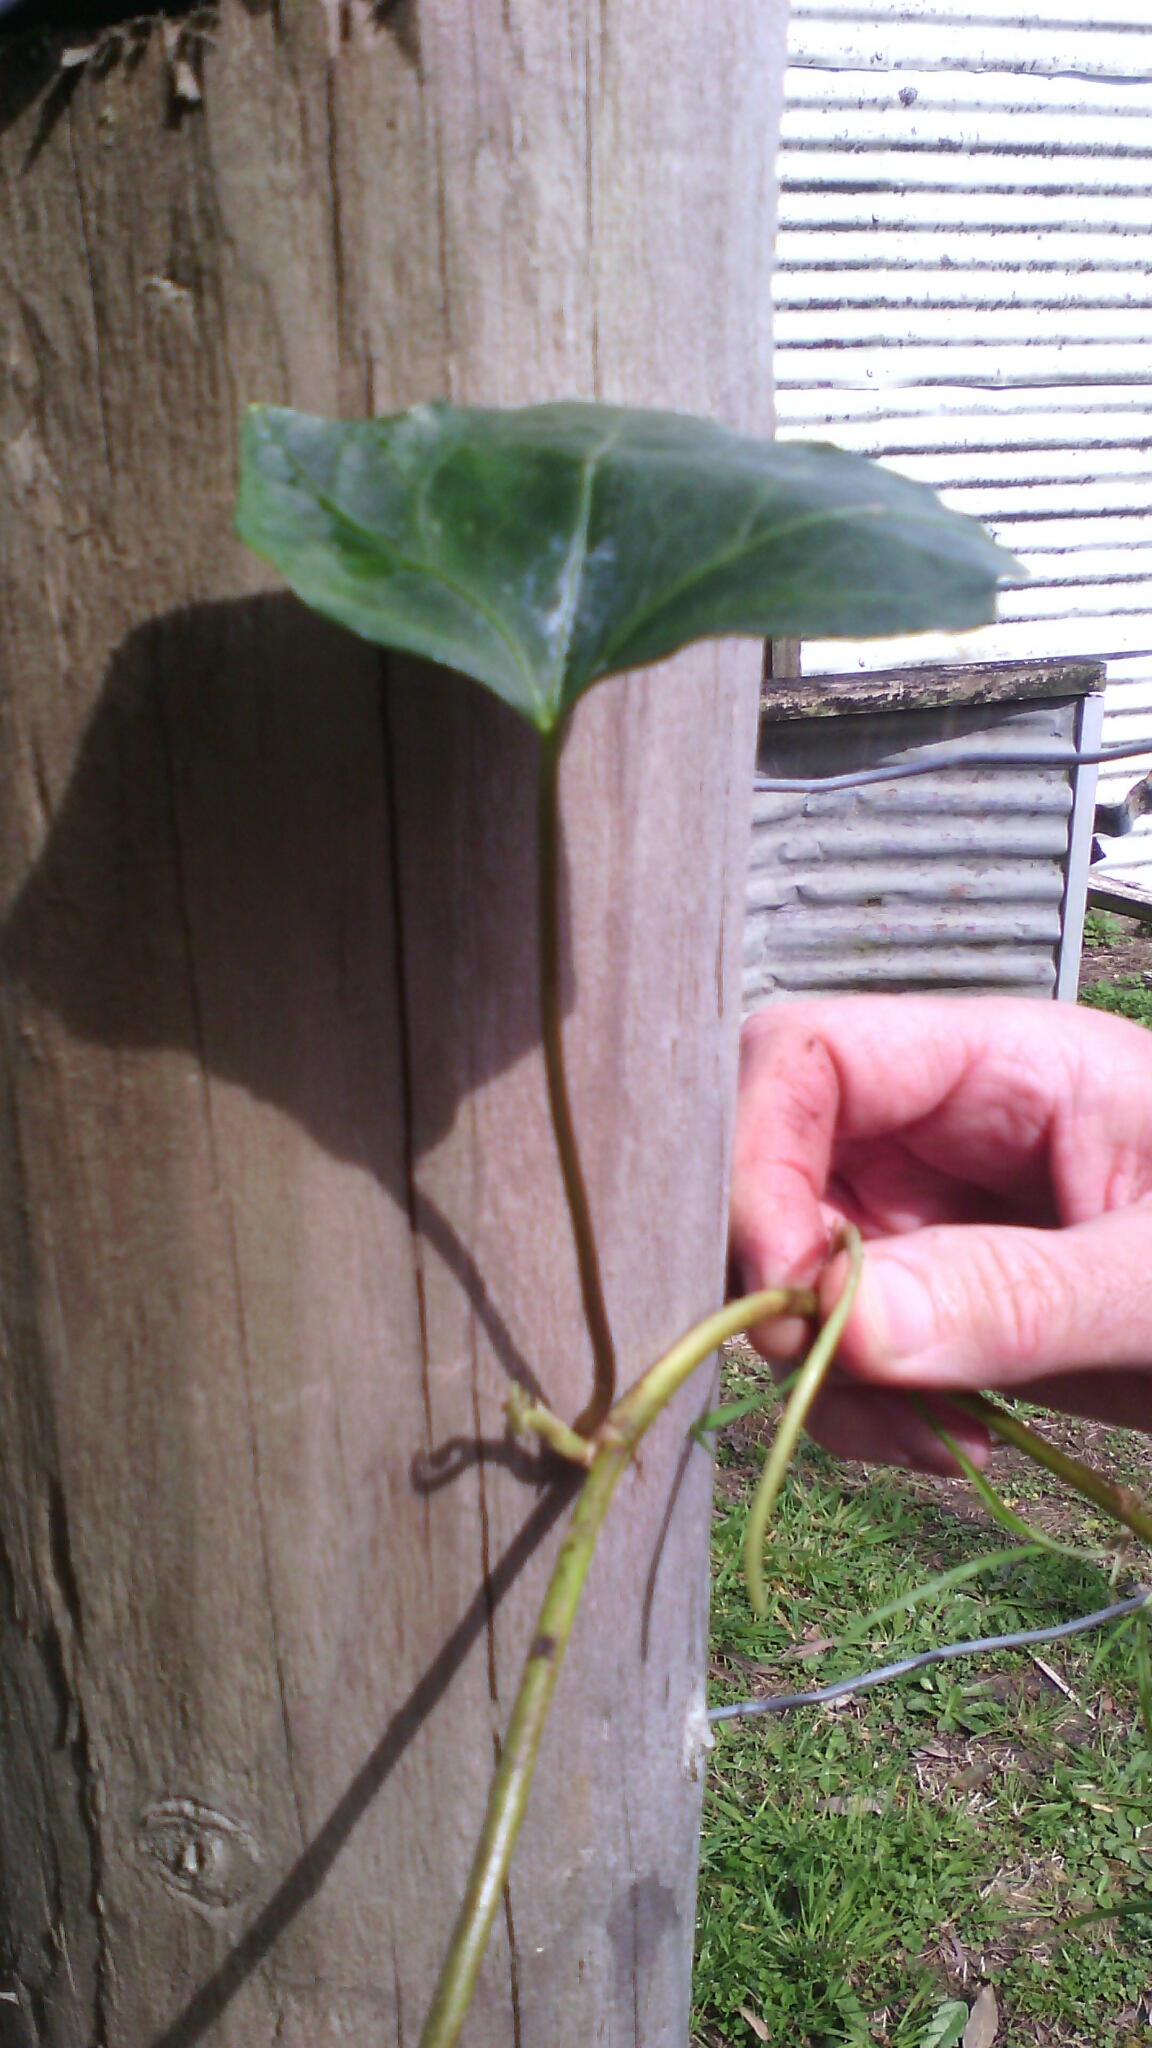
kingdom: Plantae
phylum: Tracheophyta
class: Magnoliopsida
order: Apiales
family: Araliaceae
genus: Hedera
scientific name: Hedera helix
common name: Ivy
